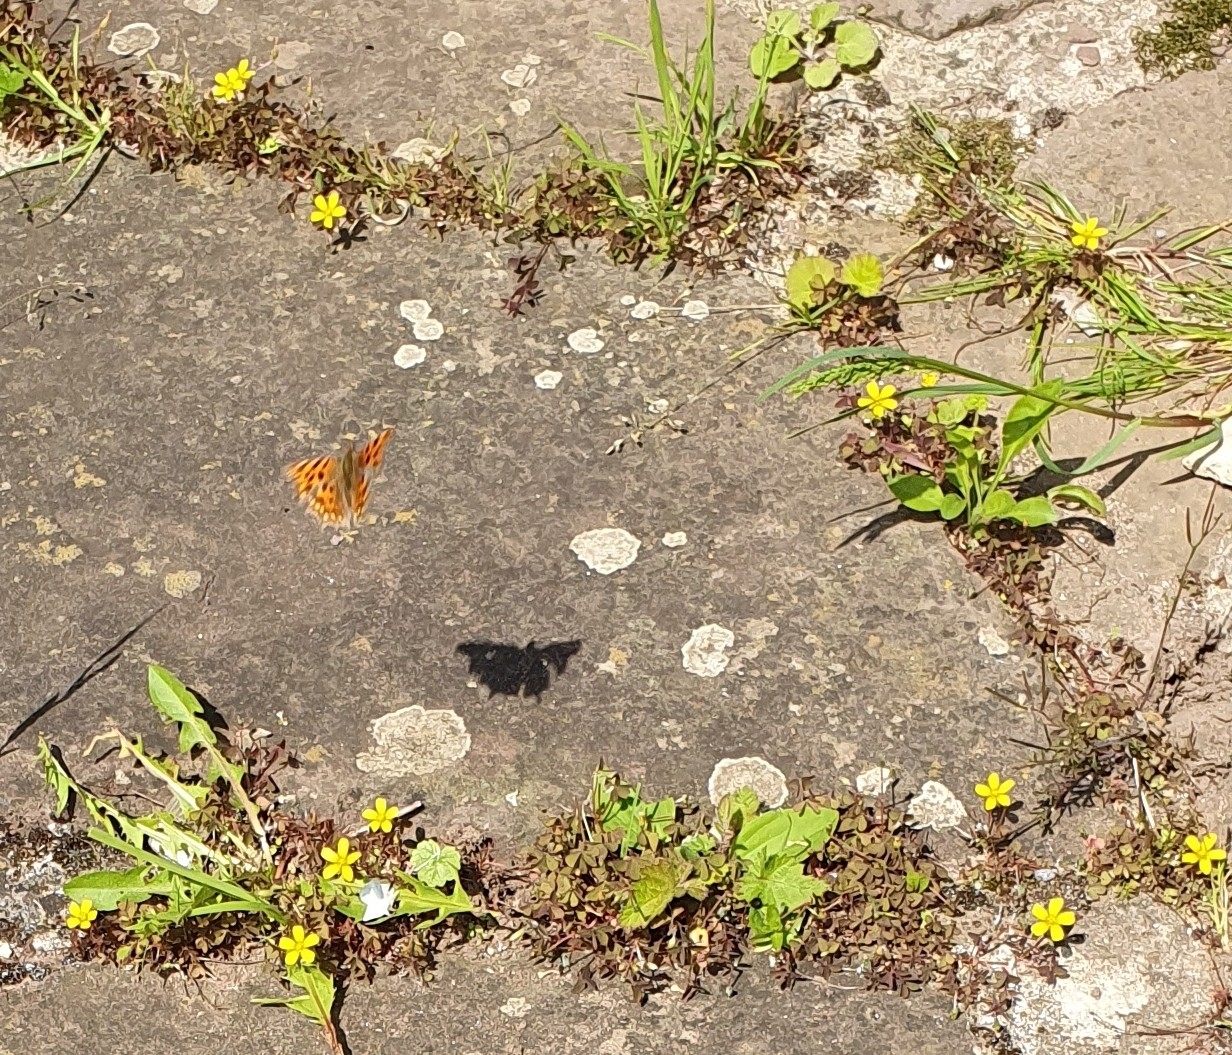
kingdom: Animalia
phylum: Arthropoda
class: Insecta
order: Lepidoptera
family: Nymphalidae
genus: Polygonia
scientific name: Polygonia c-album
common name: Comma
